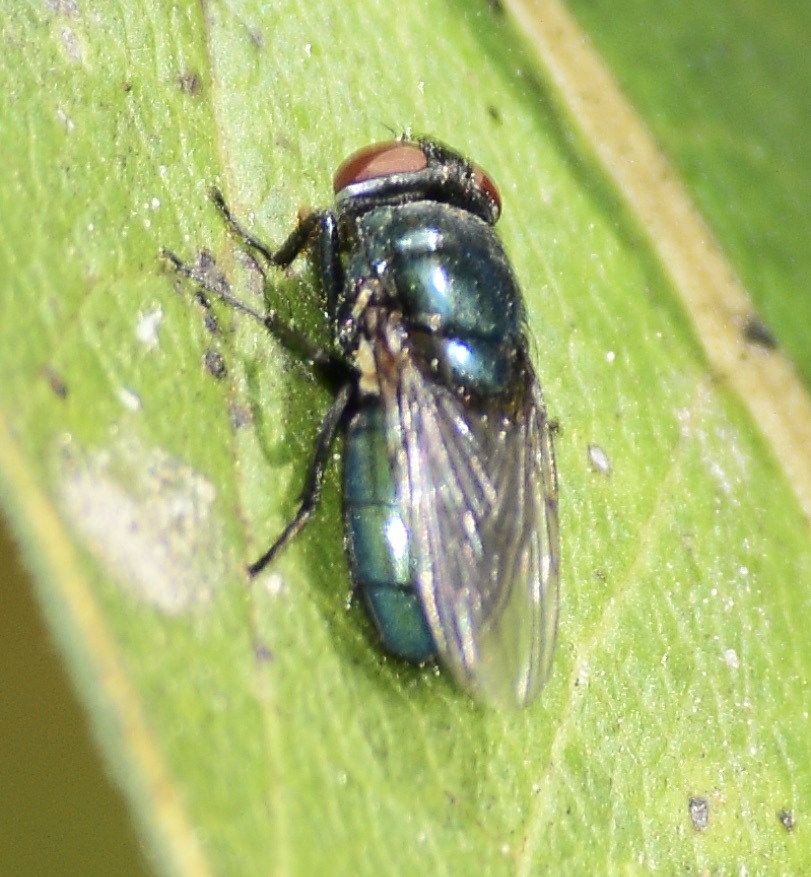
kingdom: Animalia
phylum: Arthropoda
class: Insecta
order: Diptera
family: Calliphoridae
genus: Phormia
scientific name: Phormia regina
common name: Black blow fly
